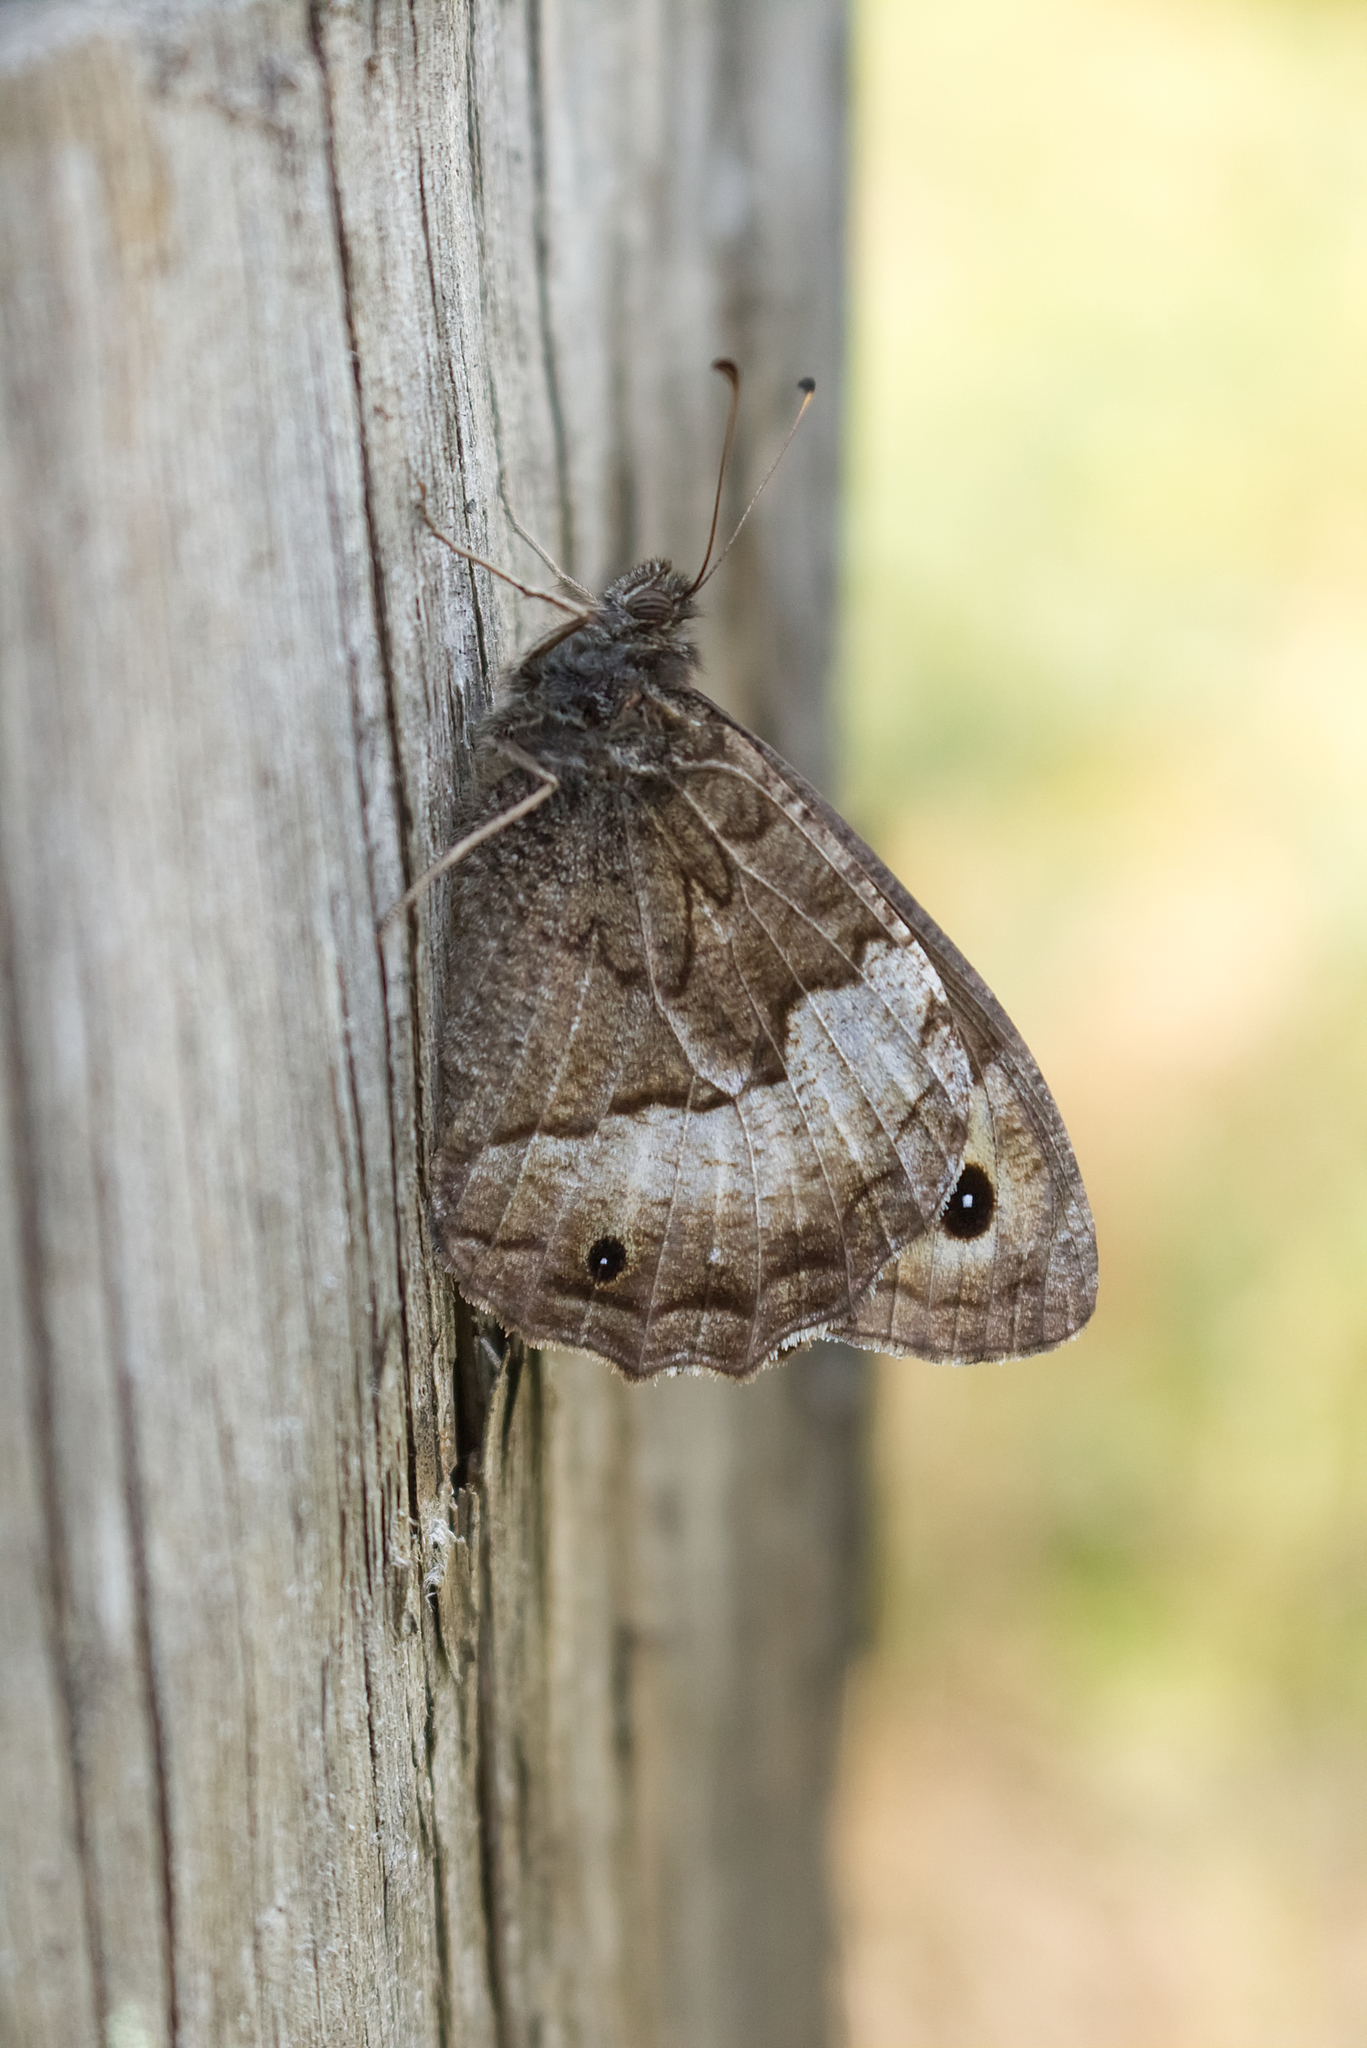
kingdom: Animalia
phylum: Arthropoda
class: Insecta
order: Lepidoptera
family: Nymphalidae
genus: Hipparchia
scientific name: Hipparchia fagi
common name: Woodland grayling
